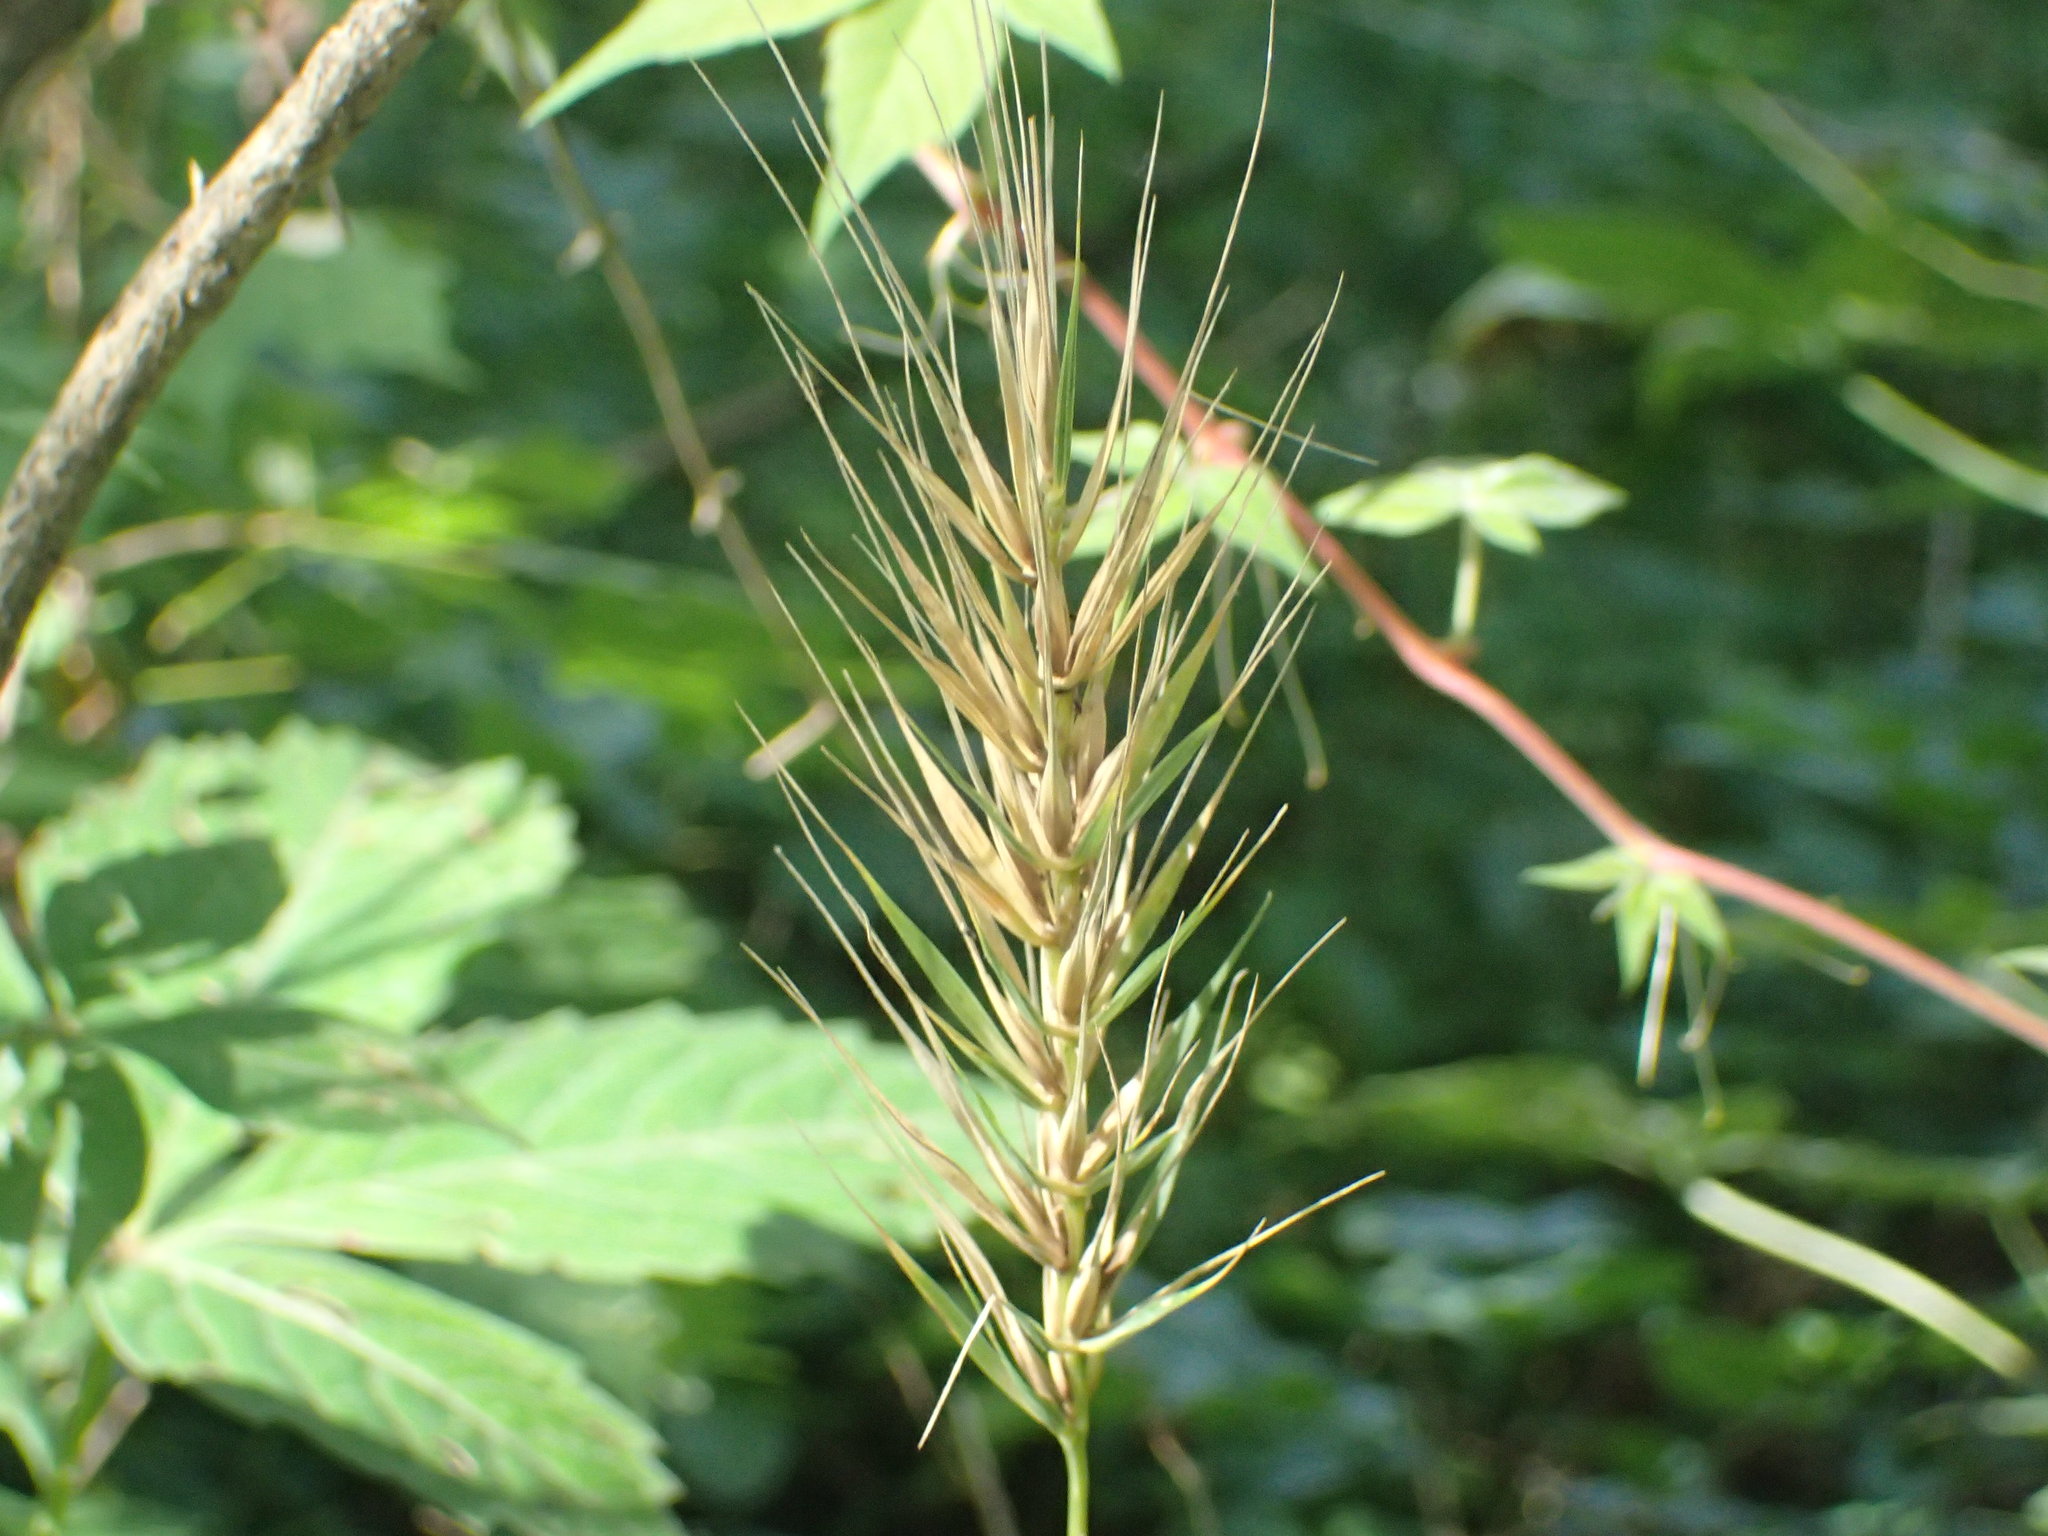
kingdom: Plantae
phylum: Tracheophyta
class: Liliopsida
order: Poales
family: Poaceae
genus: Elymus
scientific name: Elymus macgregorii
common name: Early wild rye
